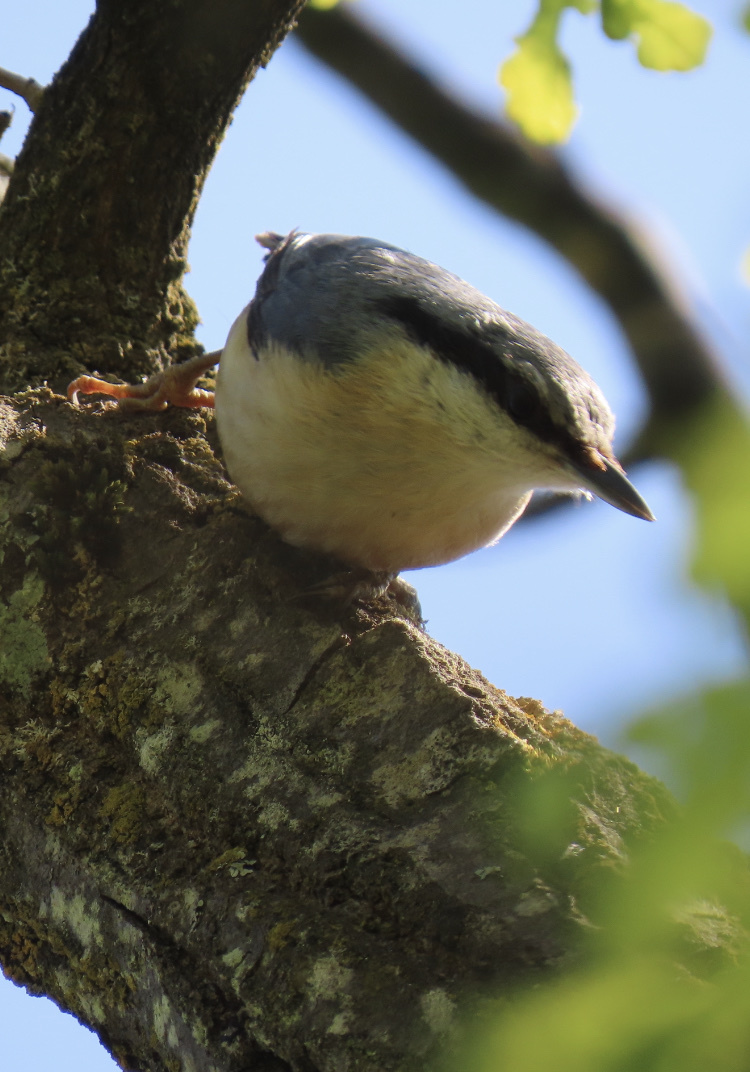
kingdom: Animalia
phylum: Chordata
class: Aves
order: Passeriformes
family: Sittidae
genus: Sitta
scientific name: Sitta europaea
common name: Eurasian nuthatch
